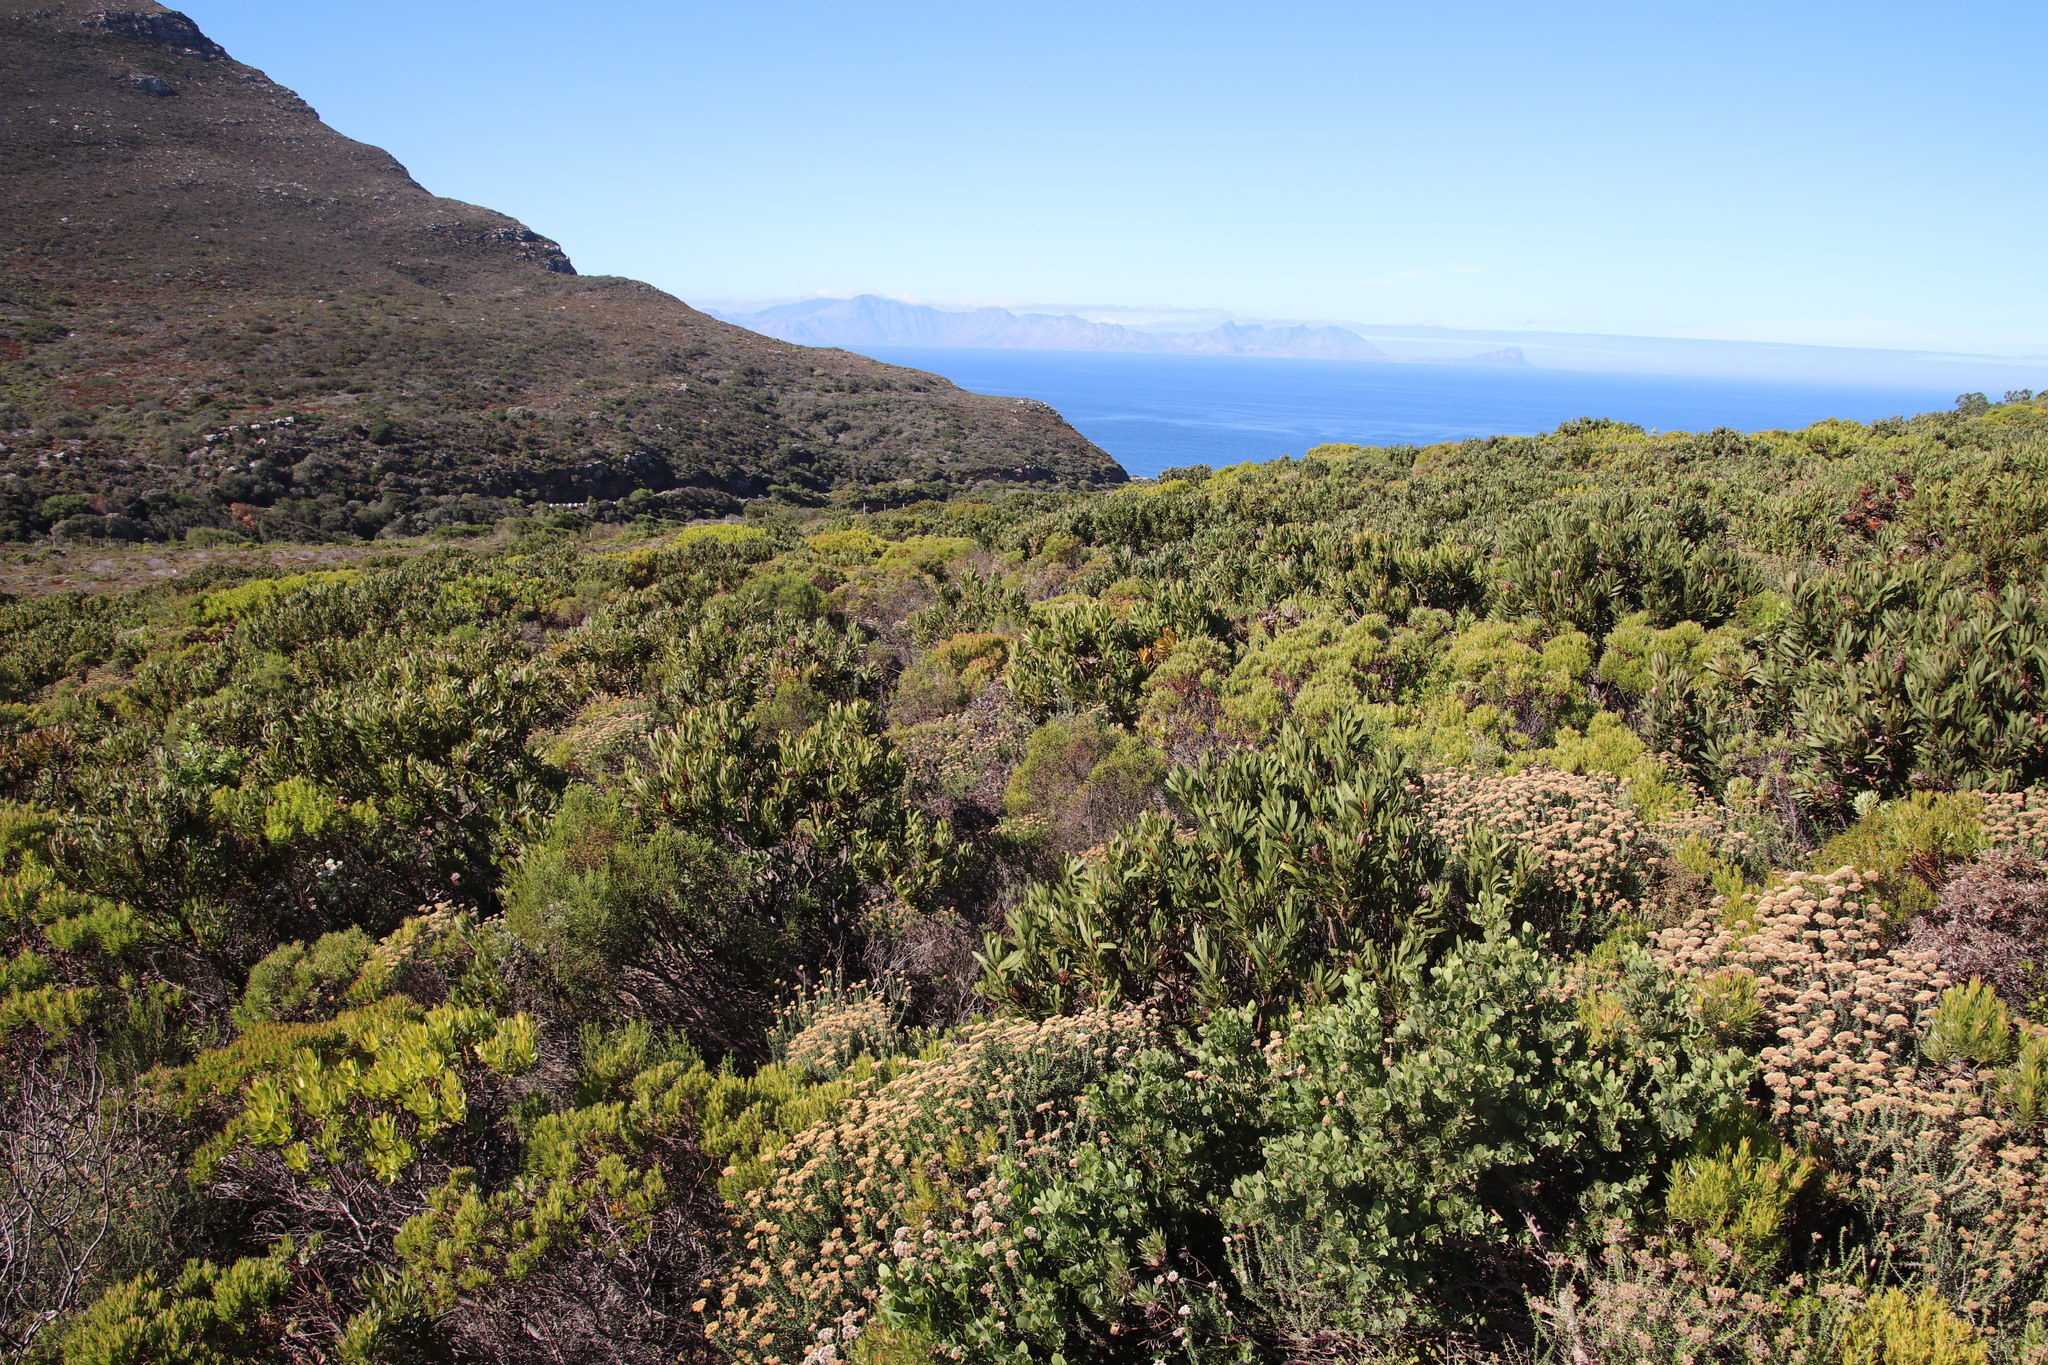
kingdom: Plantae
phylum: Tracheophyta
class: Magnoliopsida
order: Proteales
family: Proteaceae
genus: Protea
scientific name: Protea lepidocarpodendron
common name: Black-bearded protea
